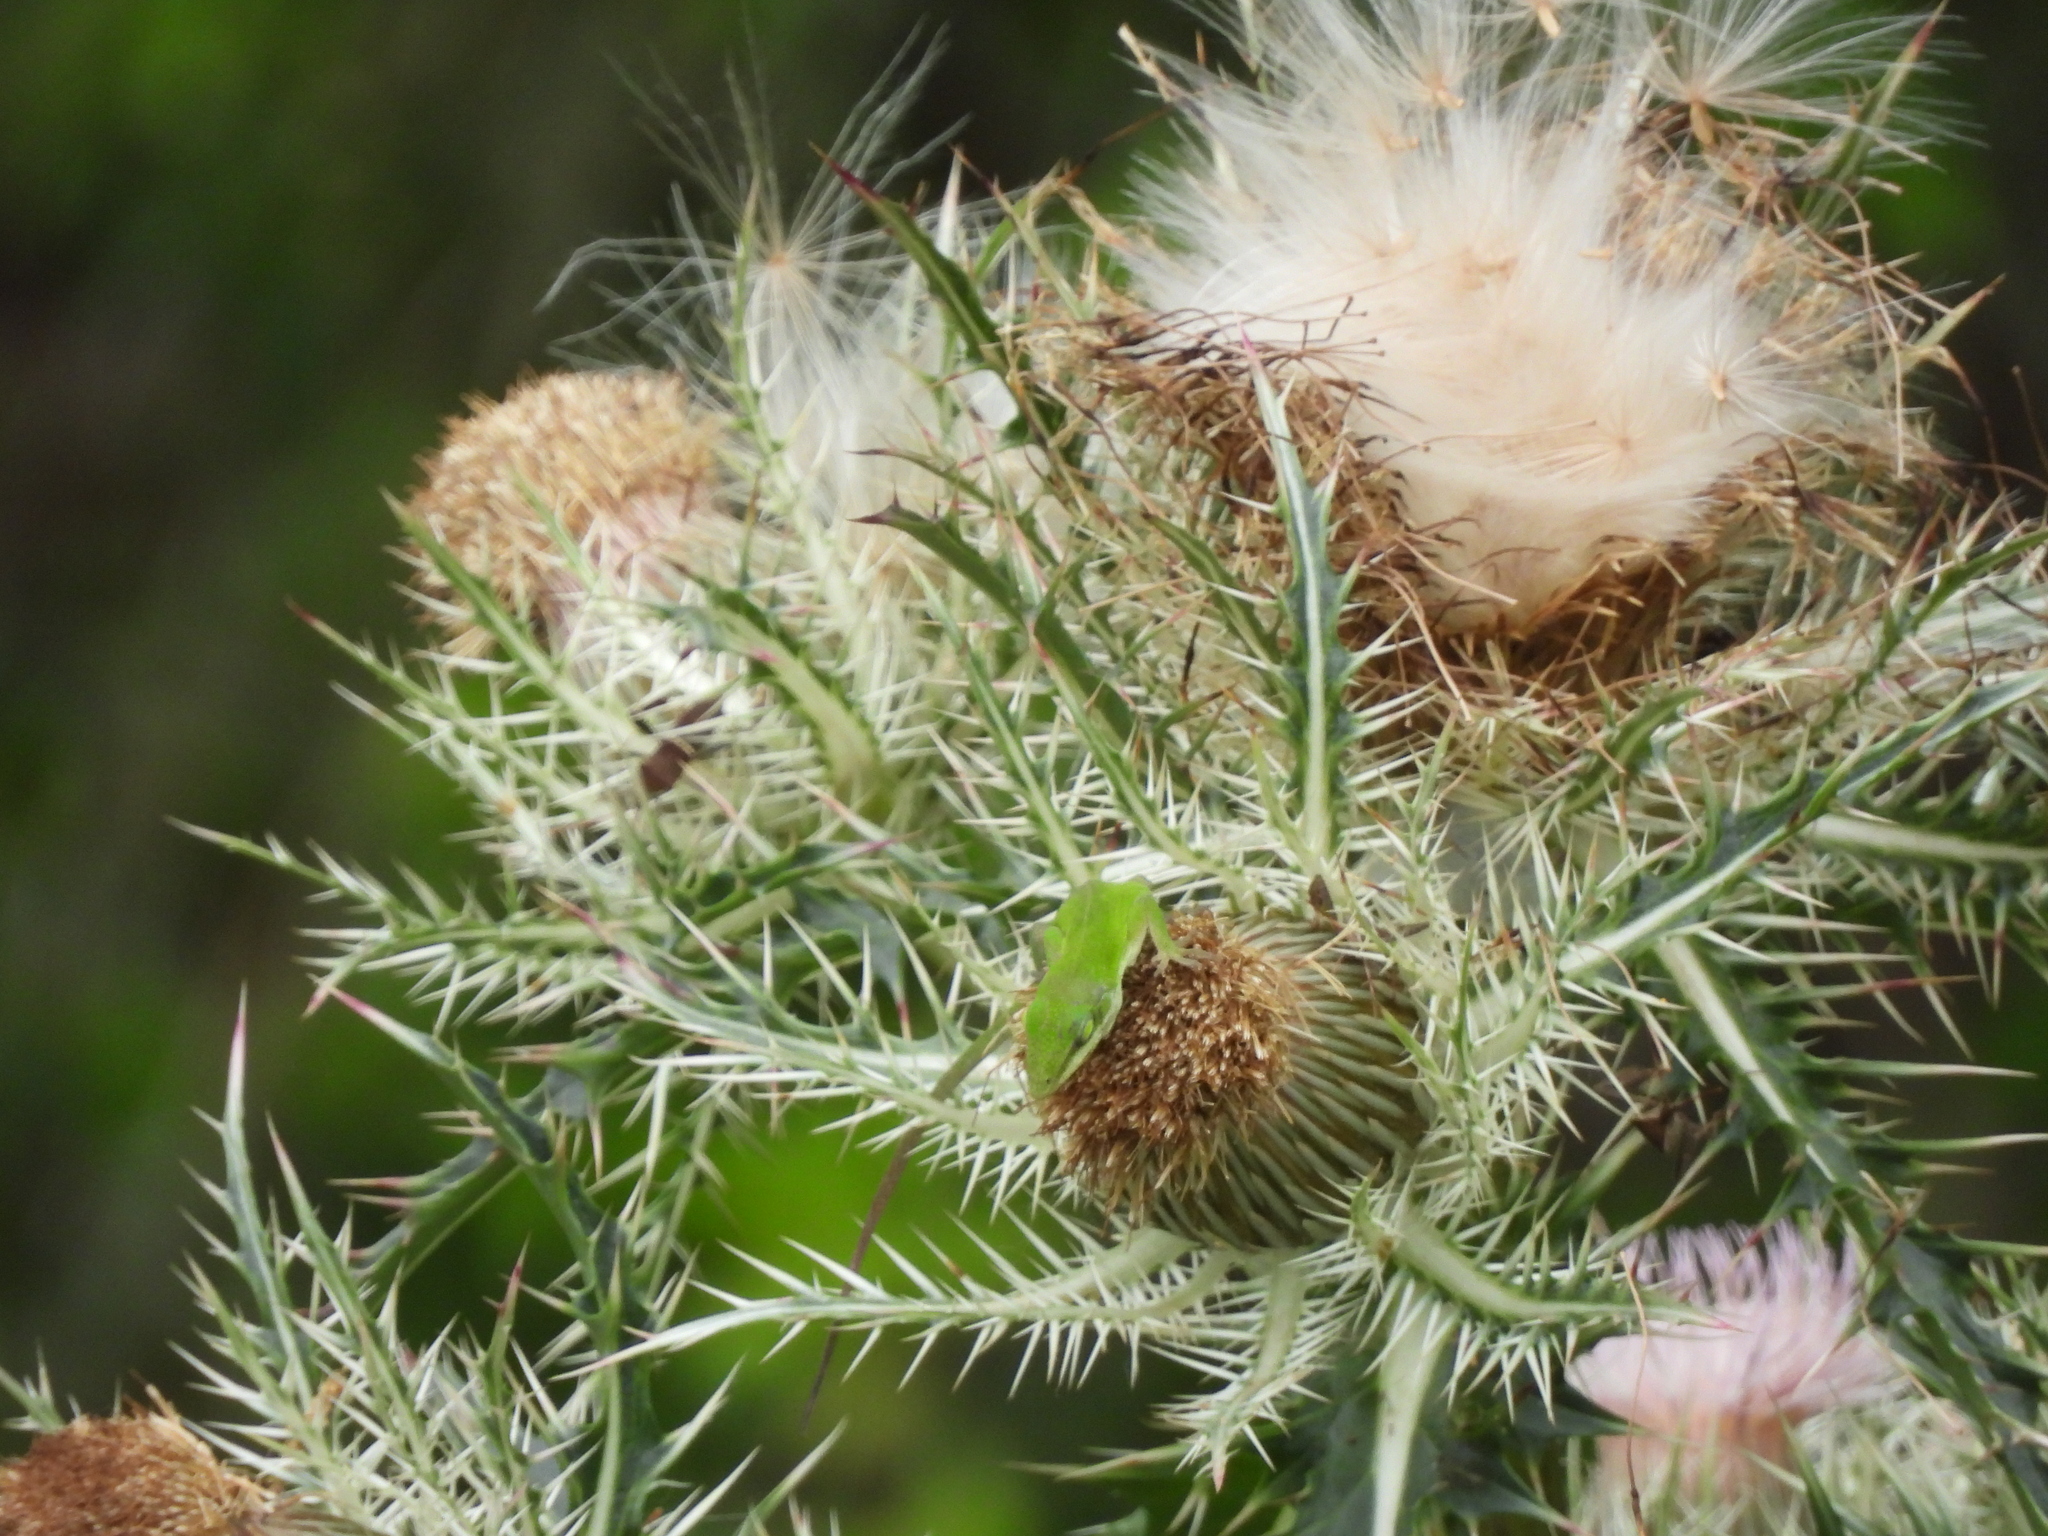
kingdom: Animalia
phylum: Chordata
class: Squamata
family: Dactyloidae
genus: Anolis
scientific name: Anolis carolinensis
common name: Green anole
